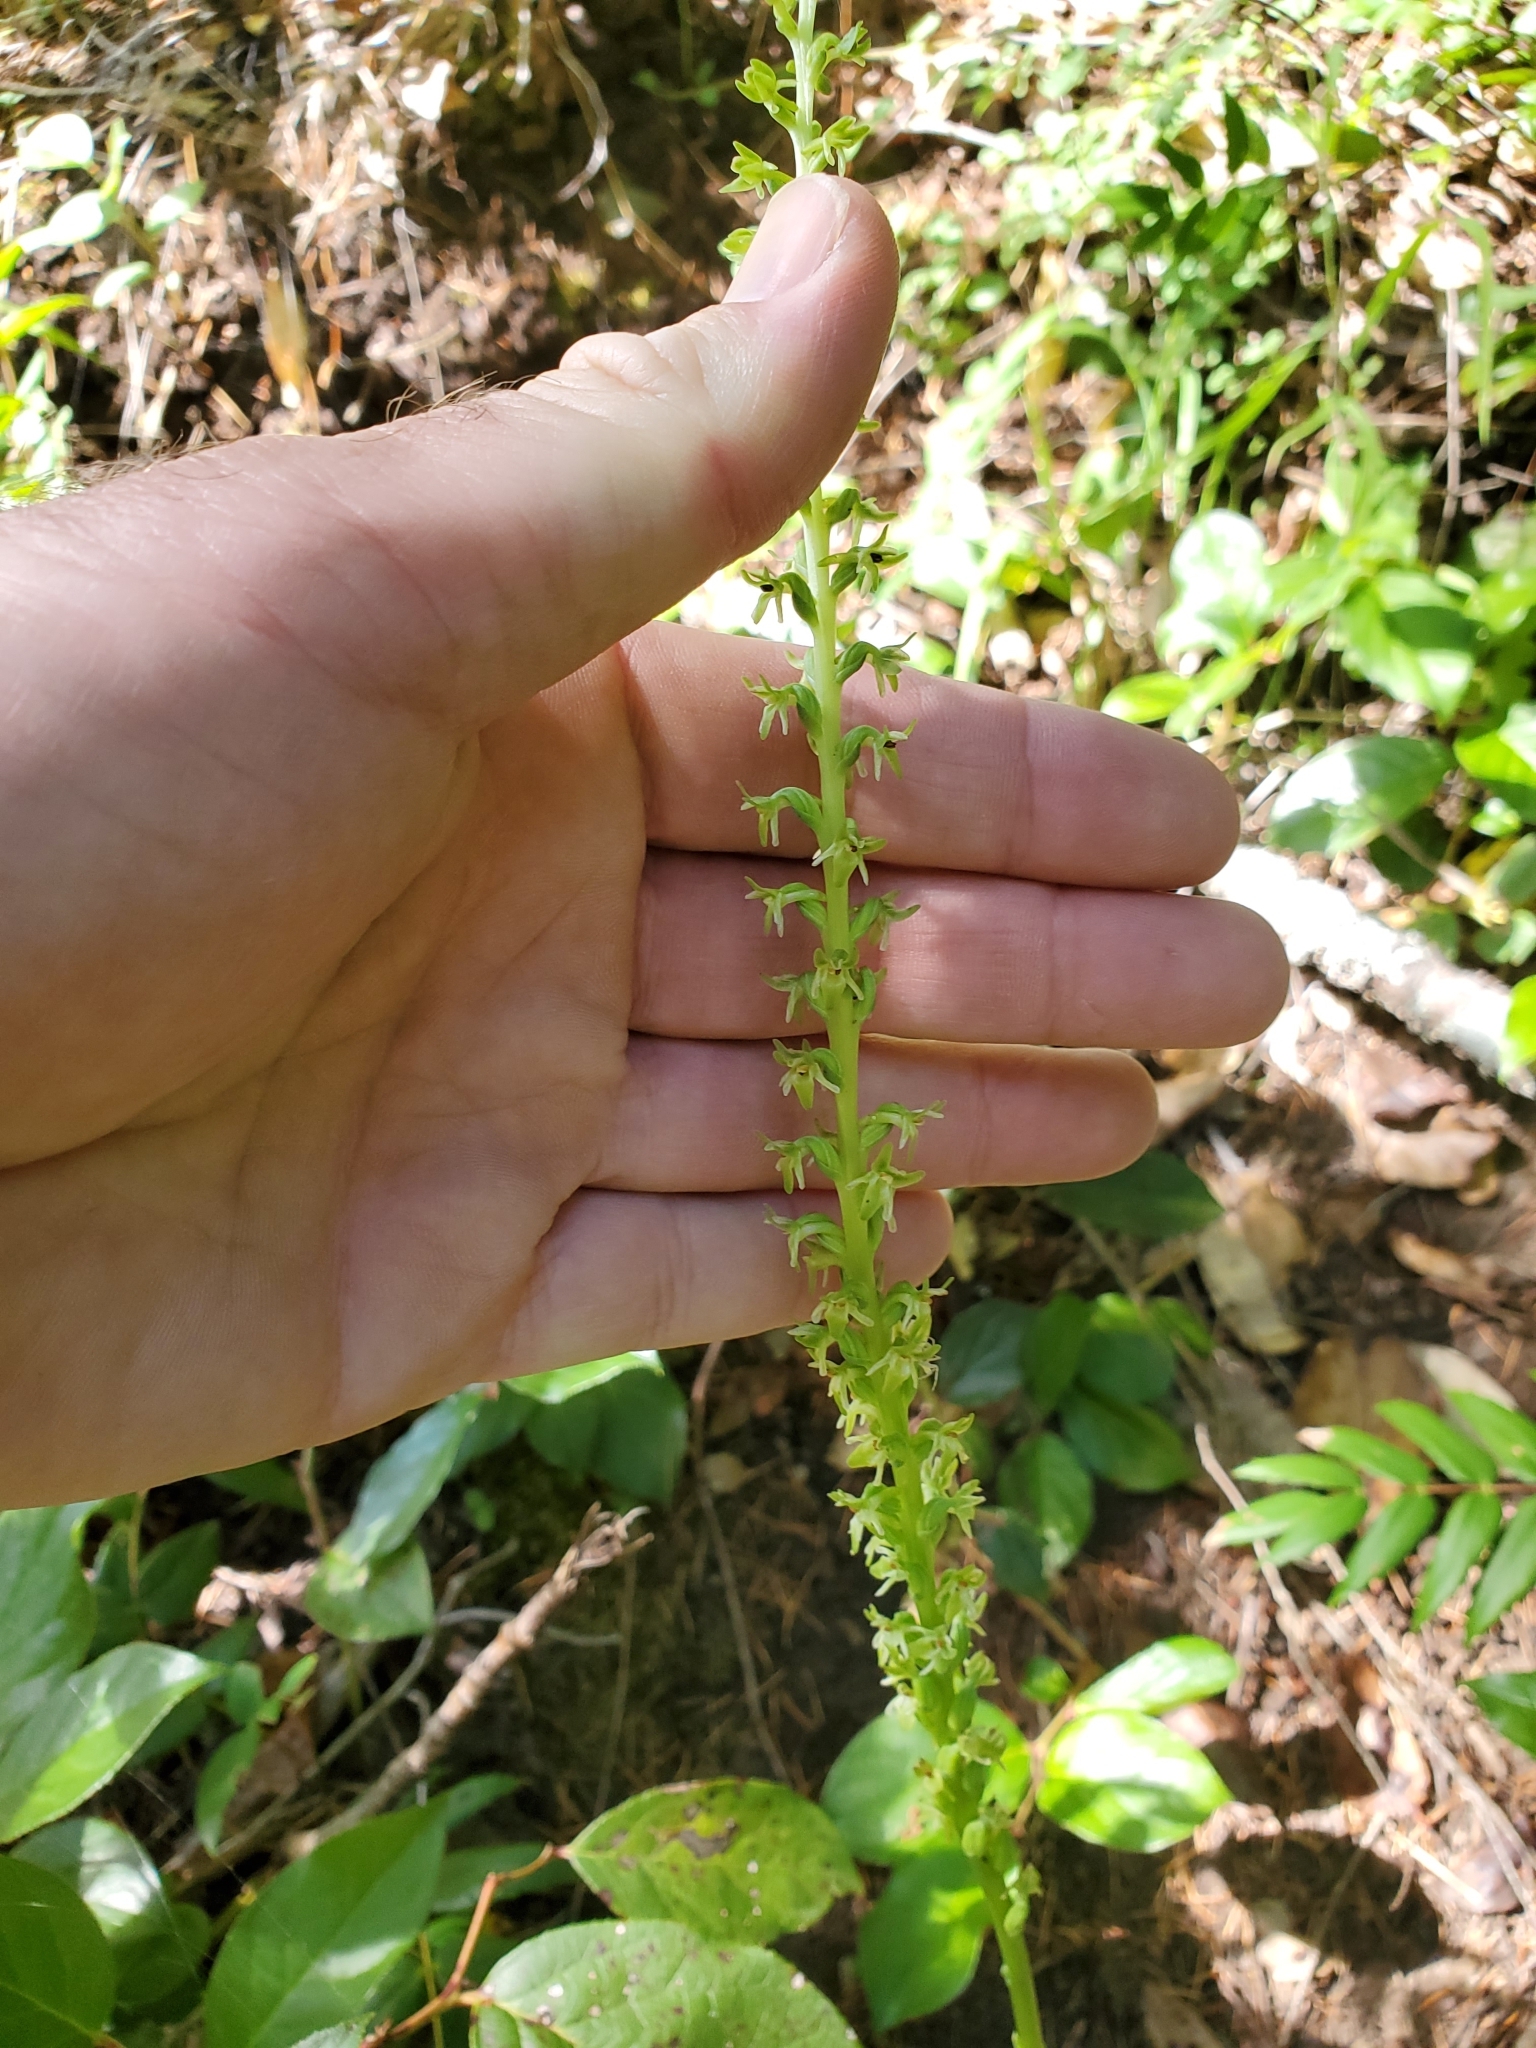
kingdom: Plantae
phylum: Tracheophyta
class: Liliopsida
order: Asparagales
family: Orchidaceae
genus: Platanthera
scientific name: Platanthera unalascensis
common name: Alaska bog orchid
